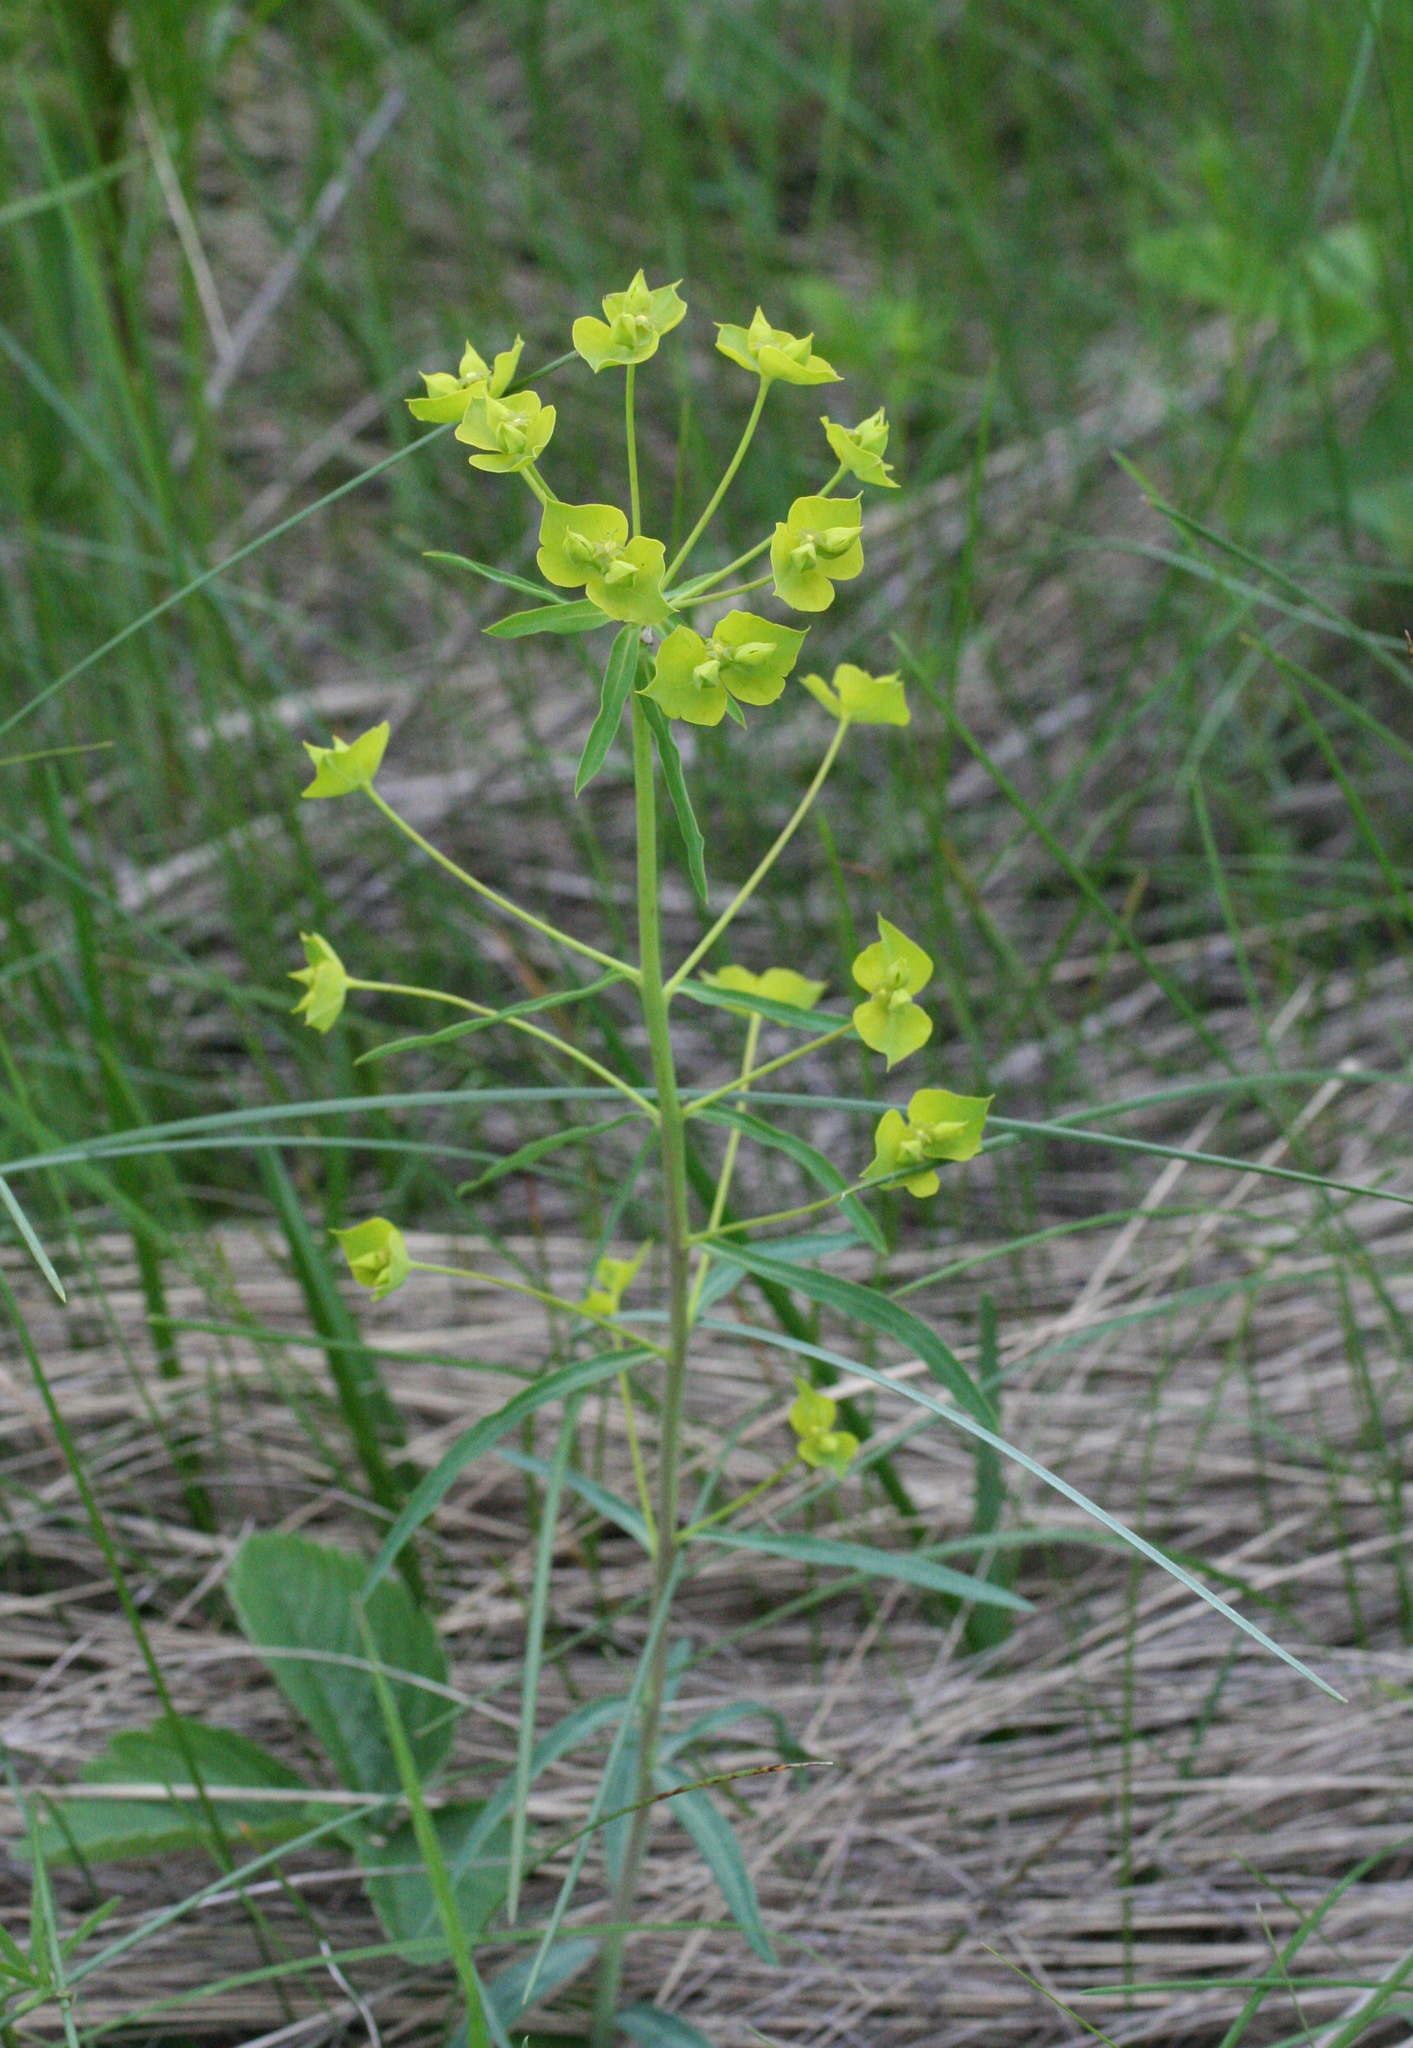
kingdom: Plantae
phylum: Tracheophyta
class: Magnoliopsida
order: Malpighiales
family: Euphorbiaceae
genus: Euphorbia
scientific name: Euphorbia virgata
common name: Leafy spurge
